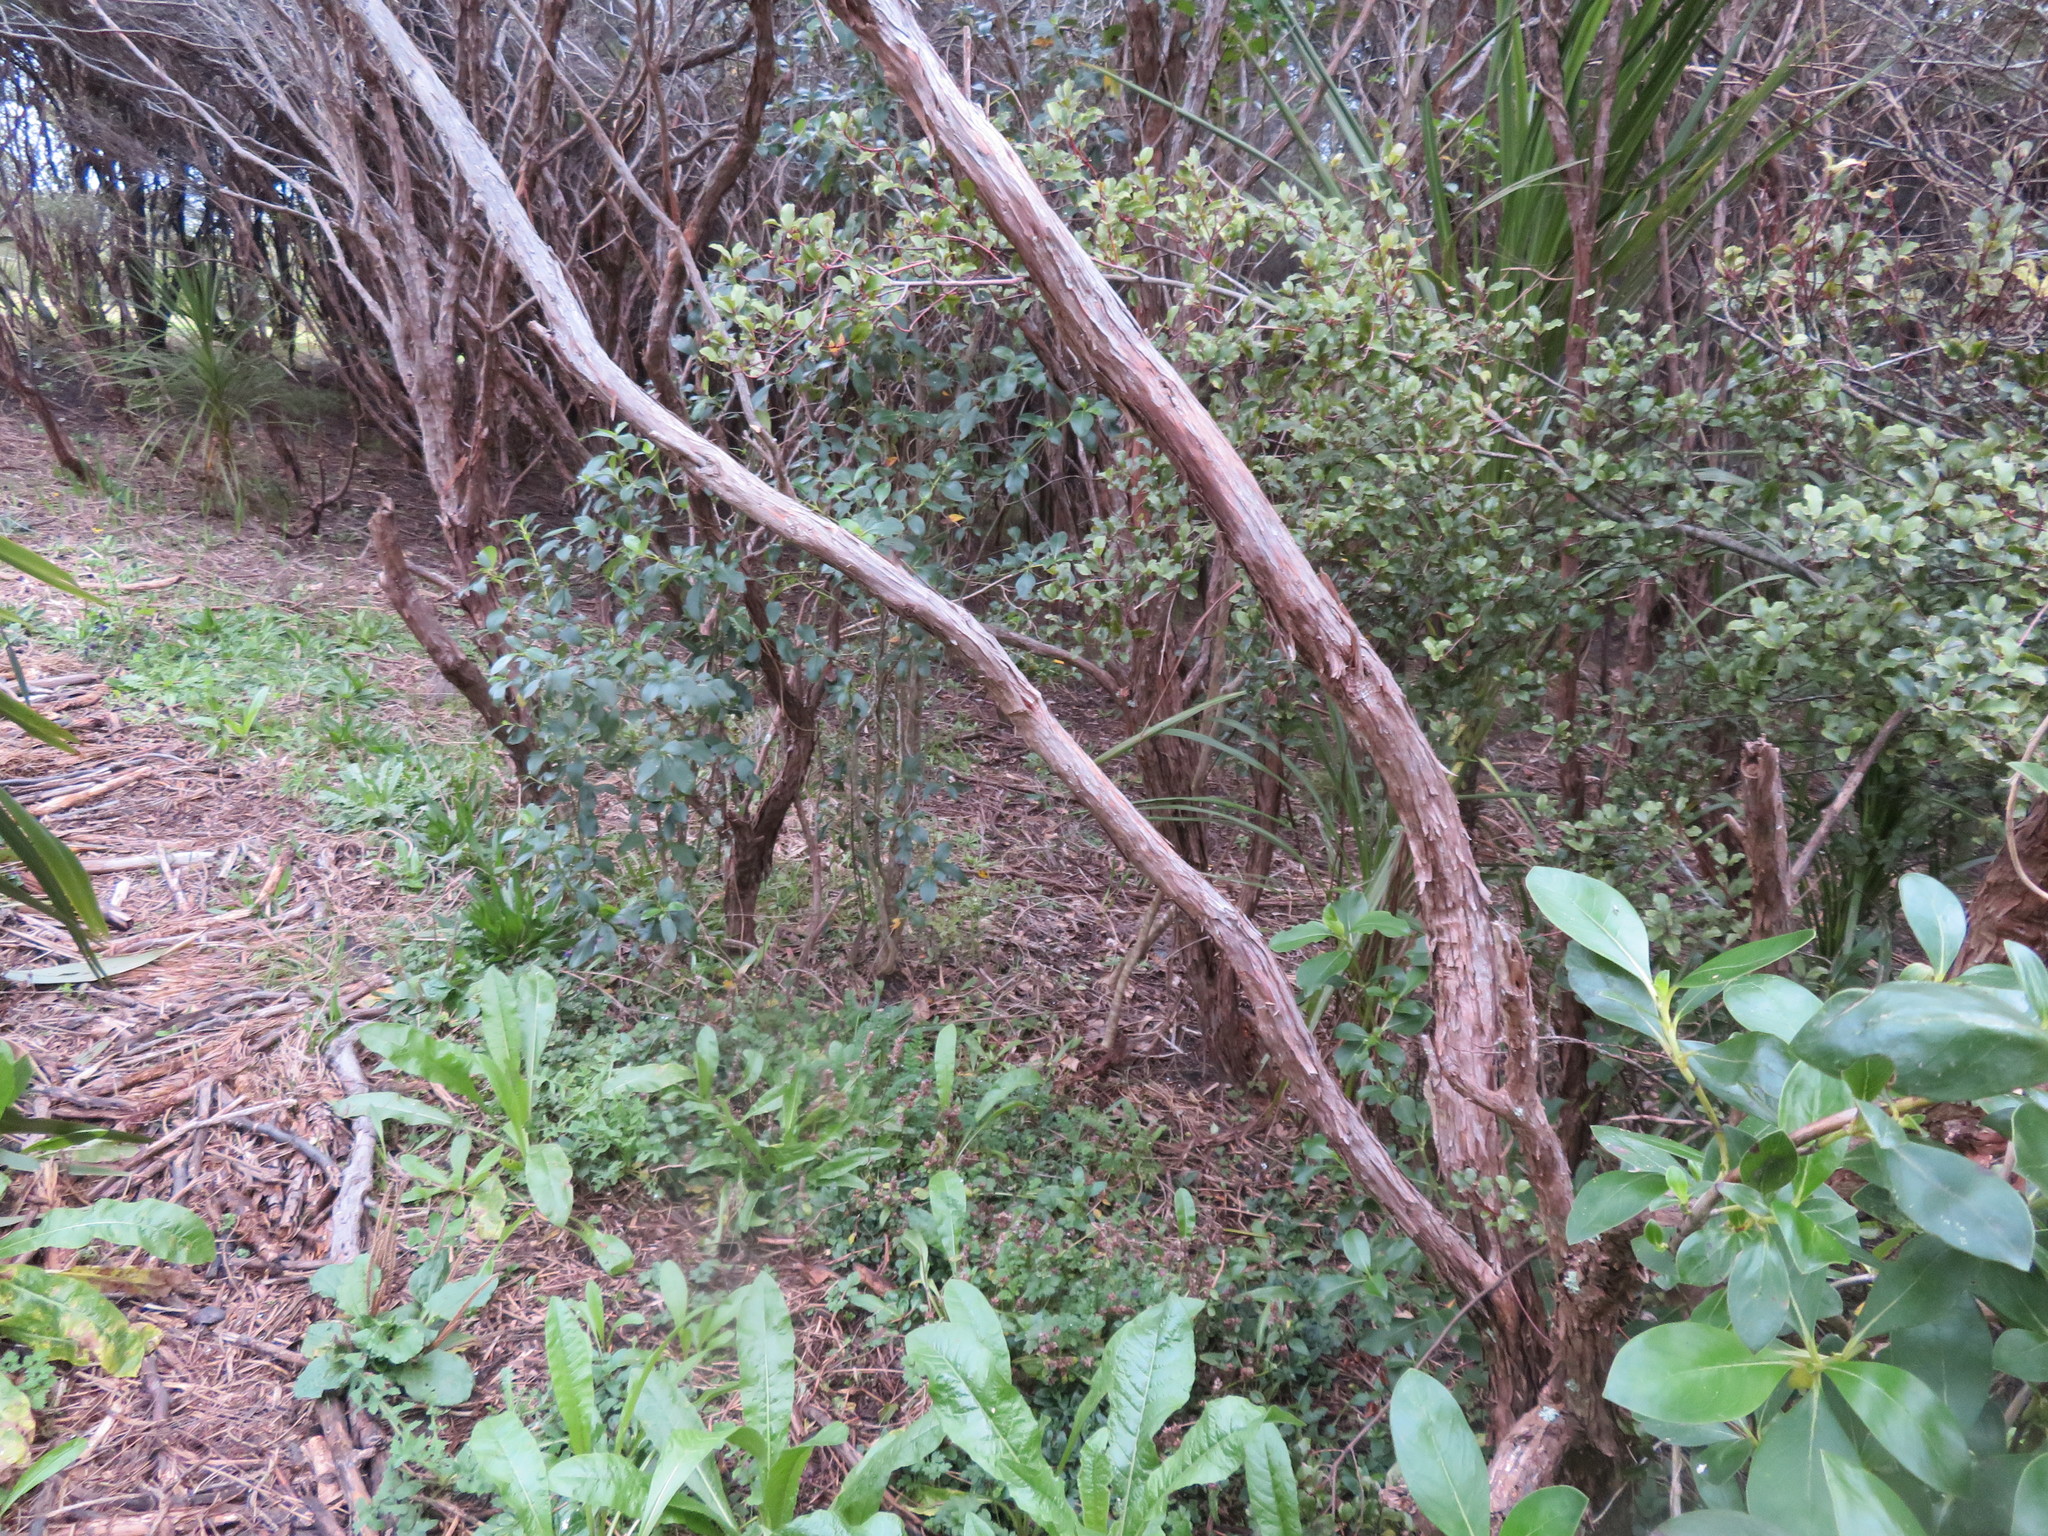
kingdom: Plantae
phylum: Tracheophyta
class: Liliopsida
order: Asparagales
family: Asparagaceae
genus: Cordyline
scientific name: Cordyline australis
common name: Cabbage-palm
